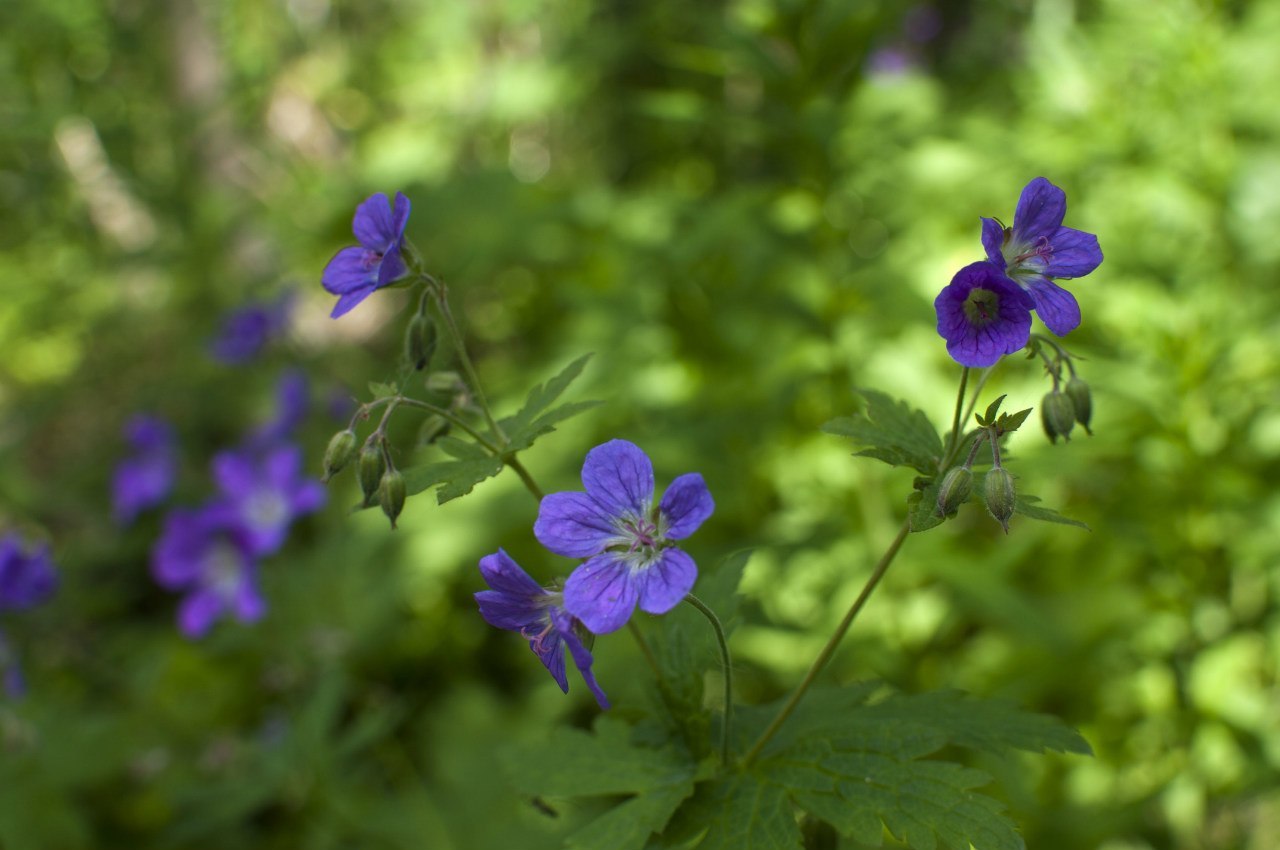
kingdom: Plantae
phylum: Tracheophyta
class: Magnoliopsida
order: Geraniales
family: Geraniaceae
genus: Geranium
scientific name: Geranium sylvaticum
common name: Wood crane's-bill
